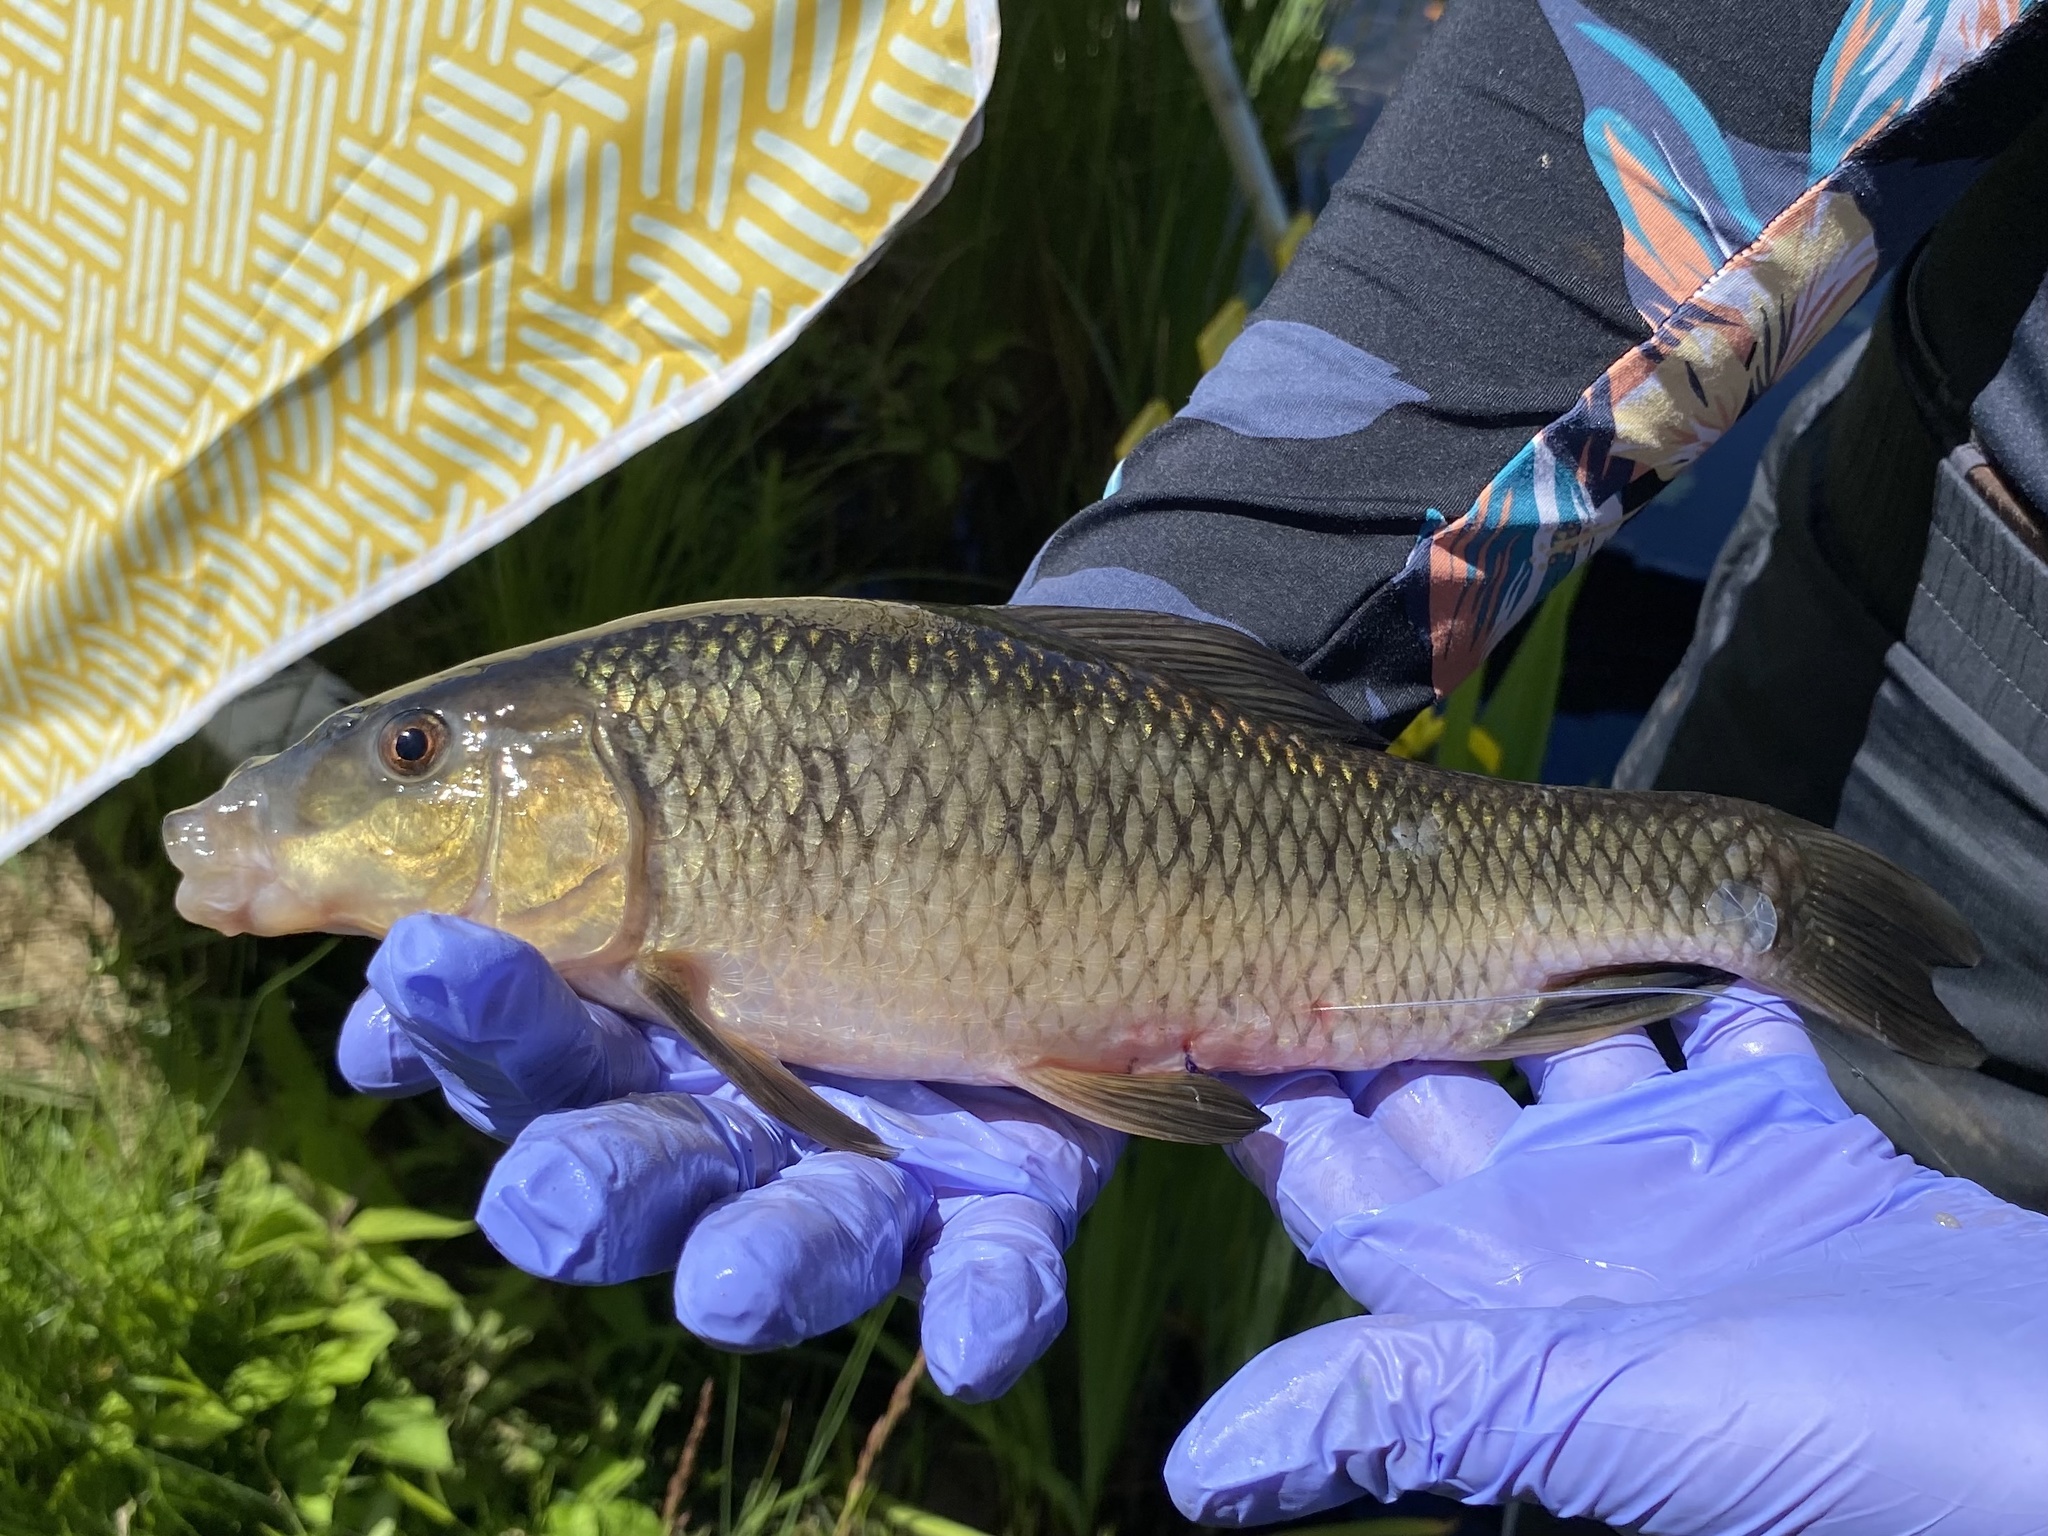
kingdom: Animalia
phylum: Chordata
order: Cypriniformes
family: Catostomidae
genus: Erimyzon
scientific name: Erimyzon sucetta
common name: Lake chubsucker
